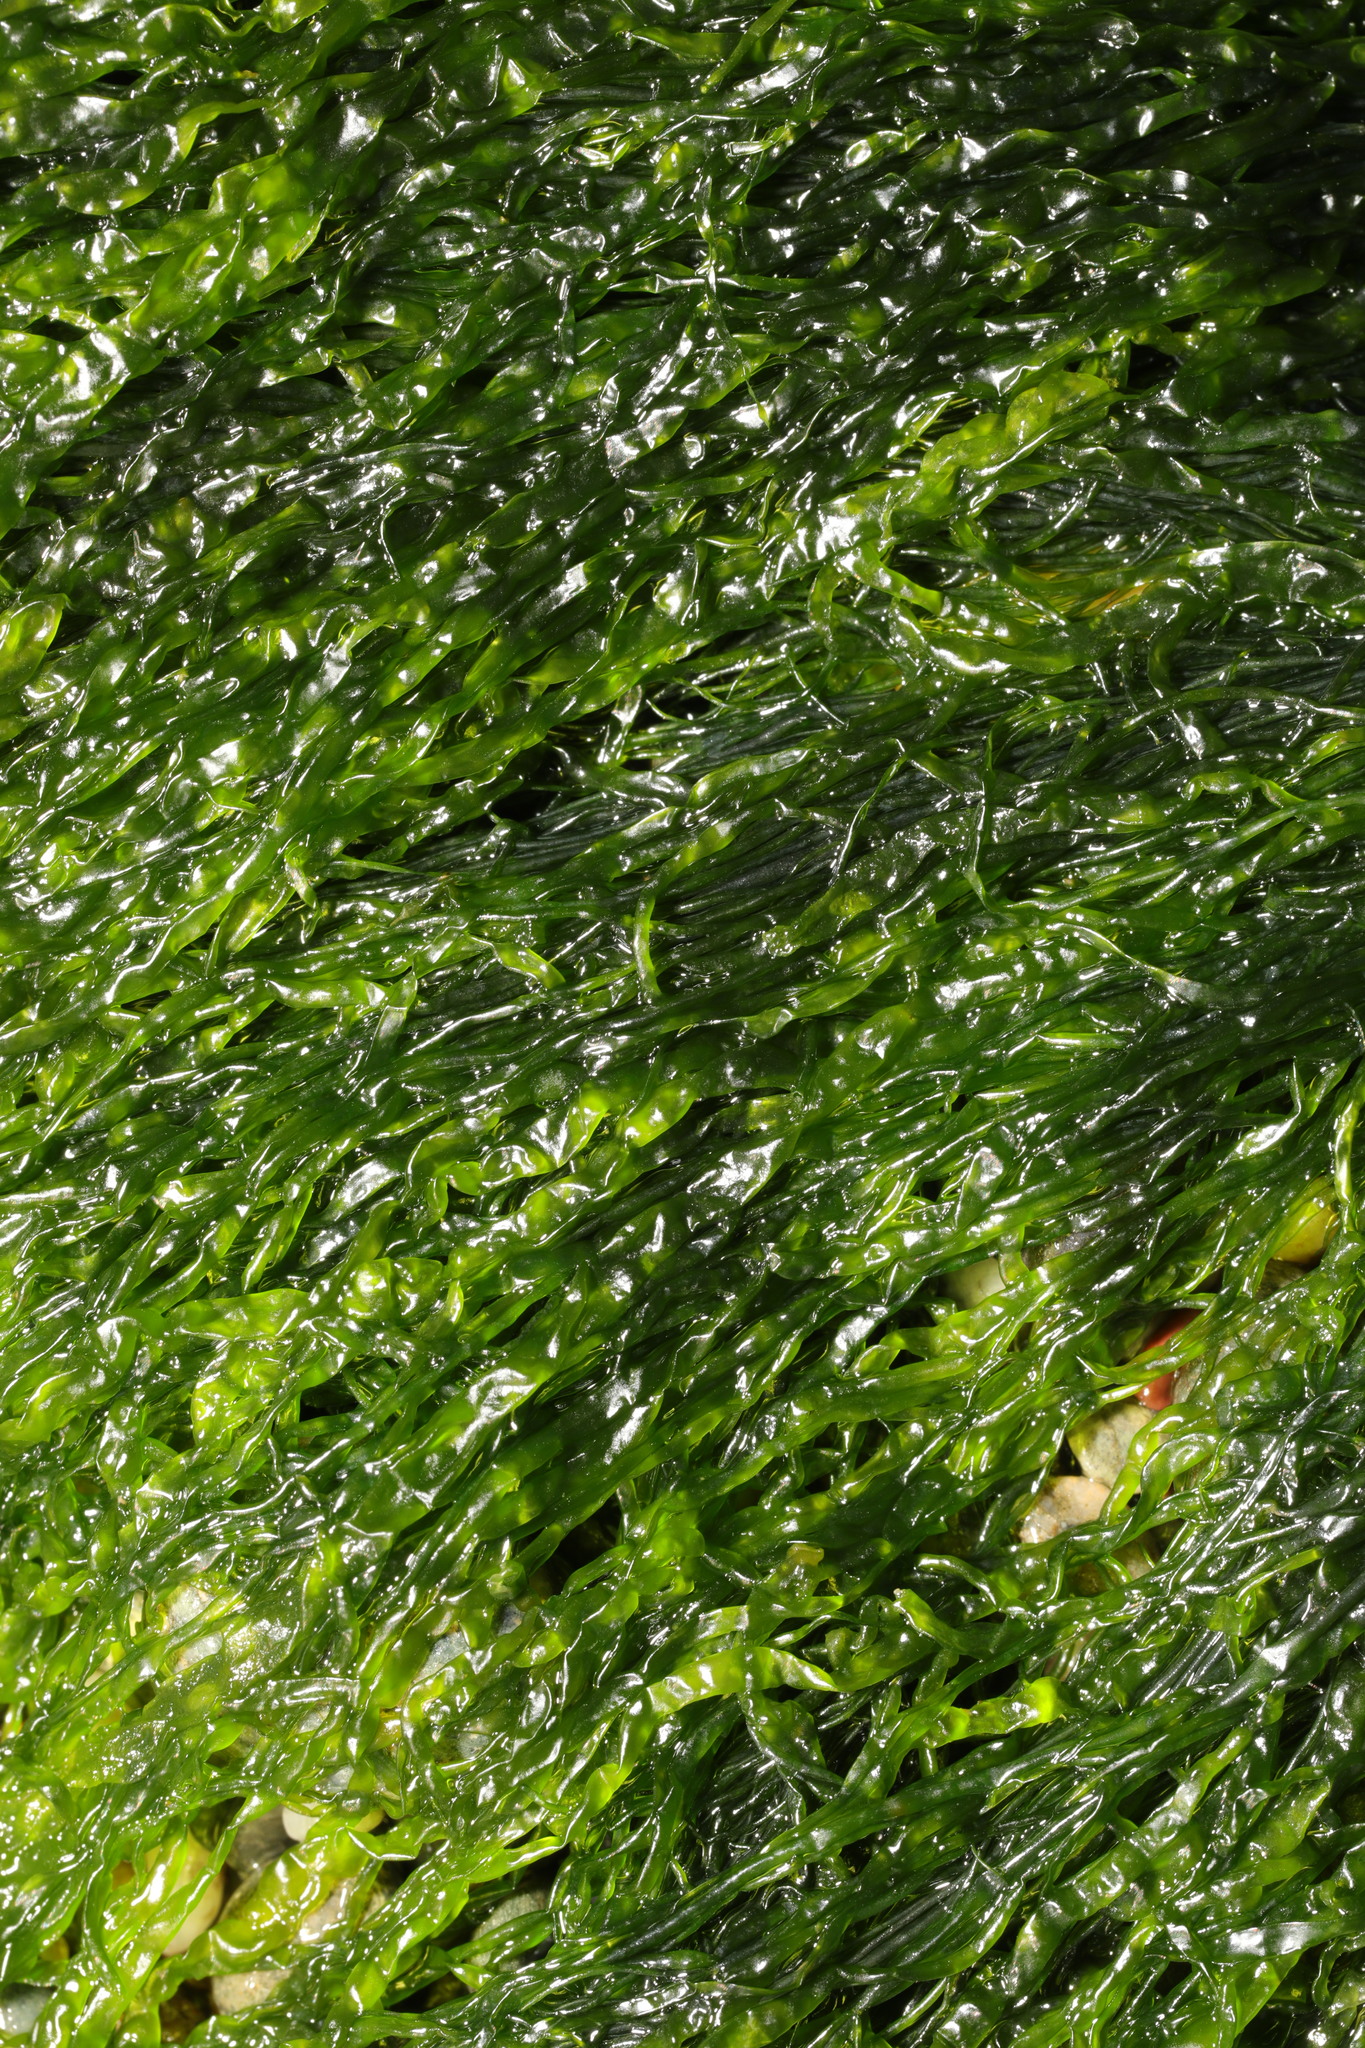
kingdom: Plantae
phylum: Chlorophyta
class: Ulvophyceae
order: Ulvales
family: Ulvaceae
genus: Ulva
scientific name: Ulva intestinalis
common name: Gut weed
